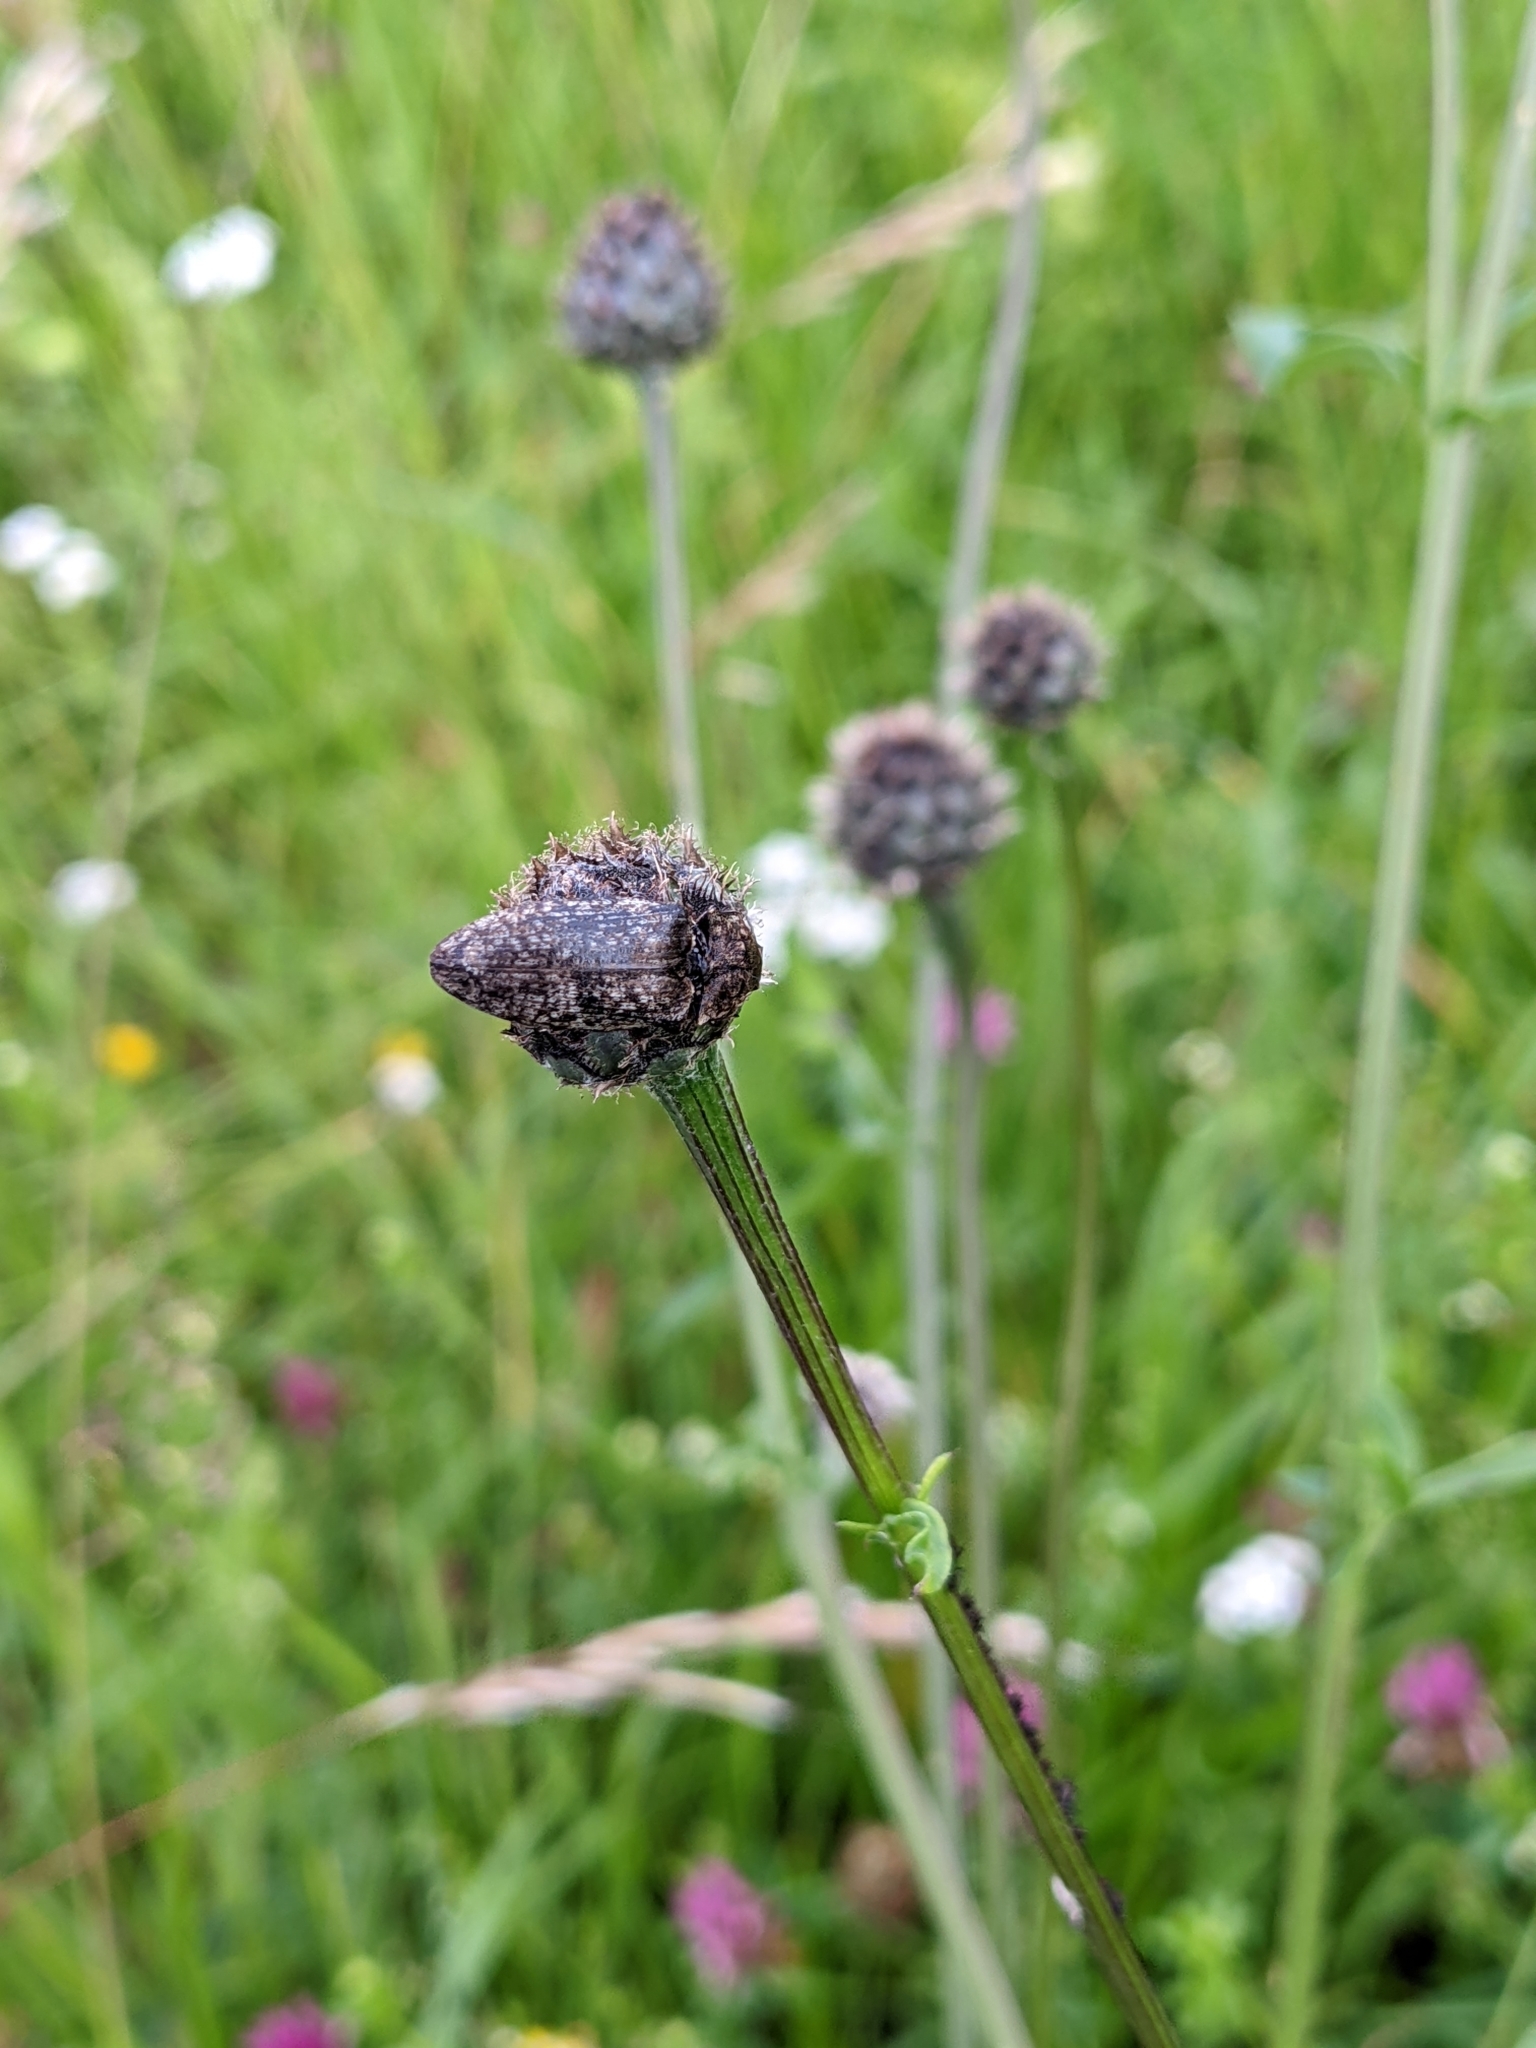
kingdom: Animalia
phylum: Arthropoda
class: Insecta
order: Coleoptera
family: Elateridae
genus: Agrypnus
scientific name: Agrypnus murinus
